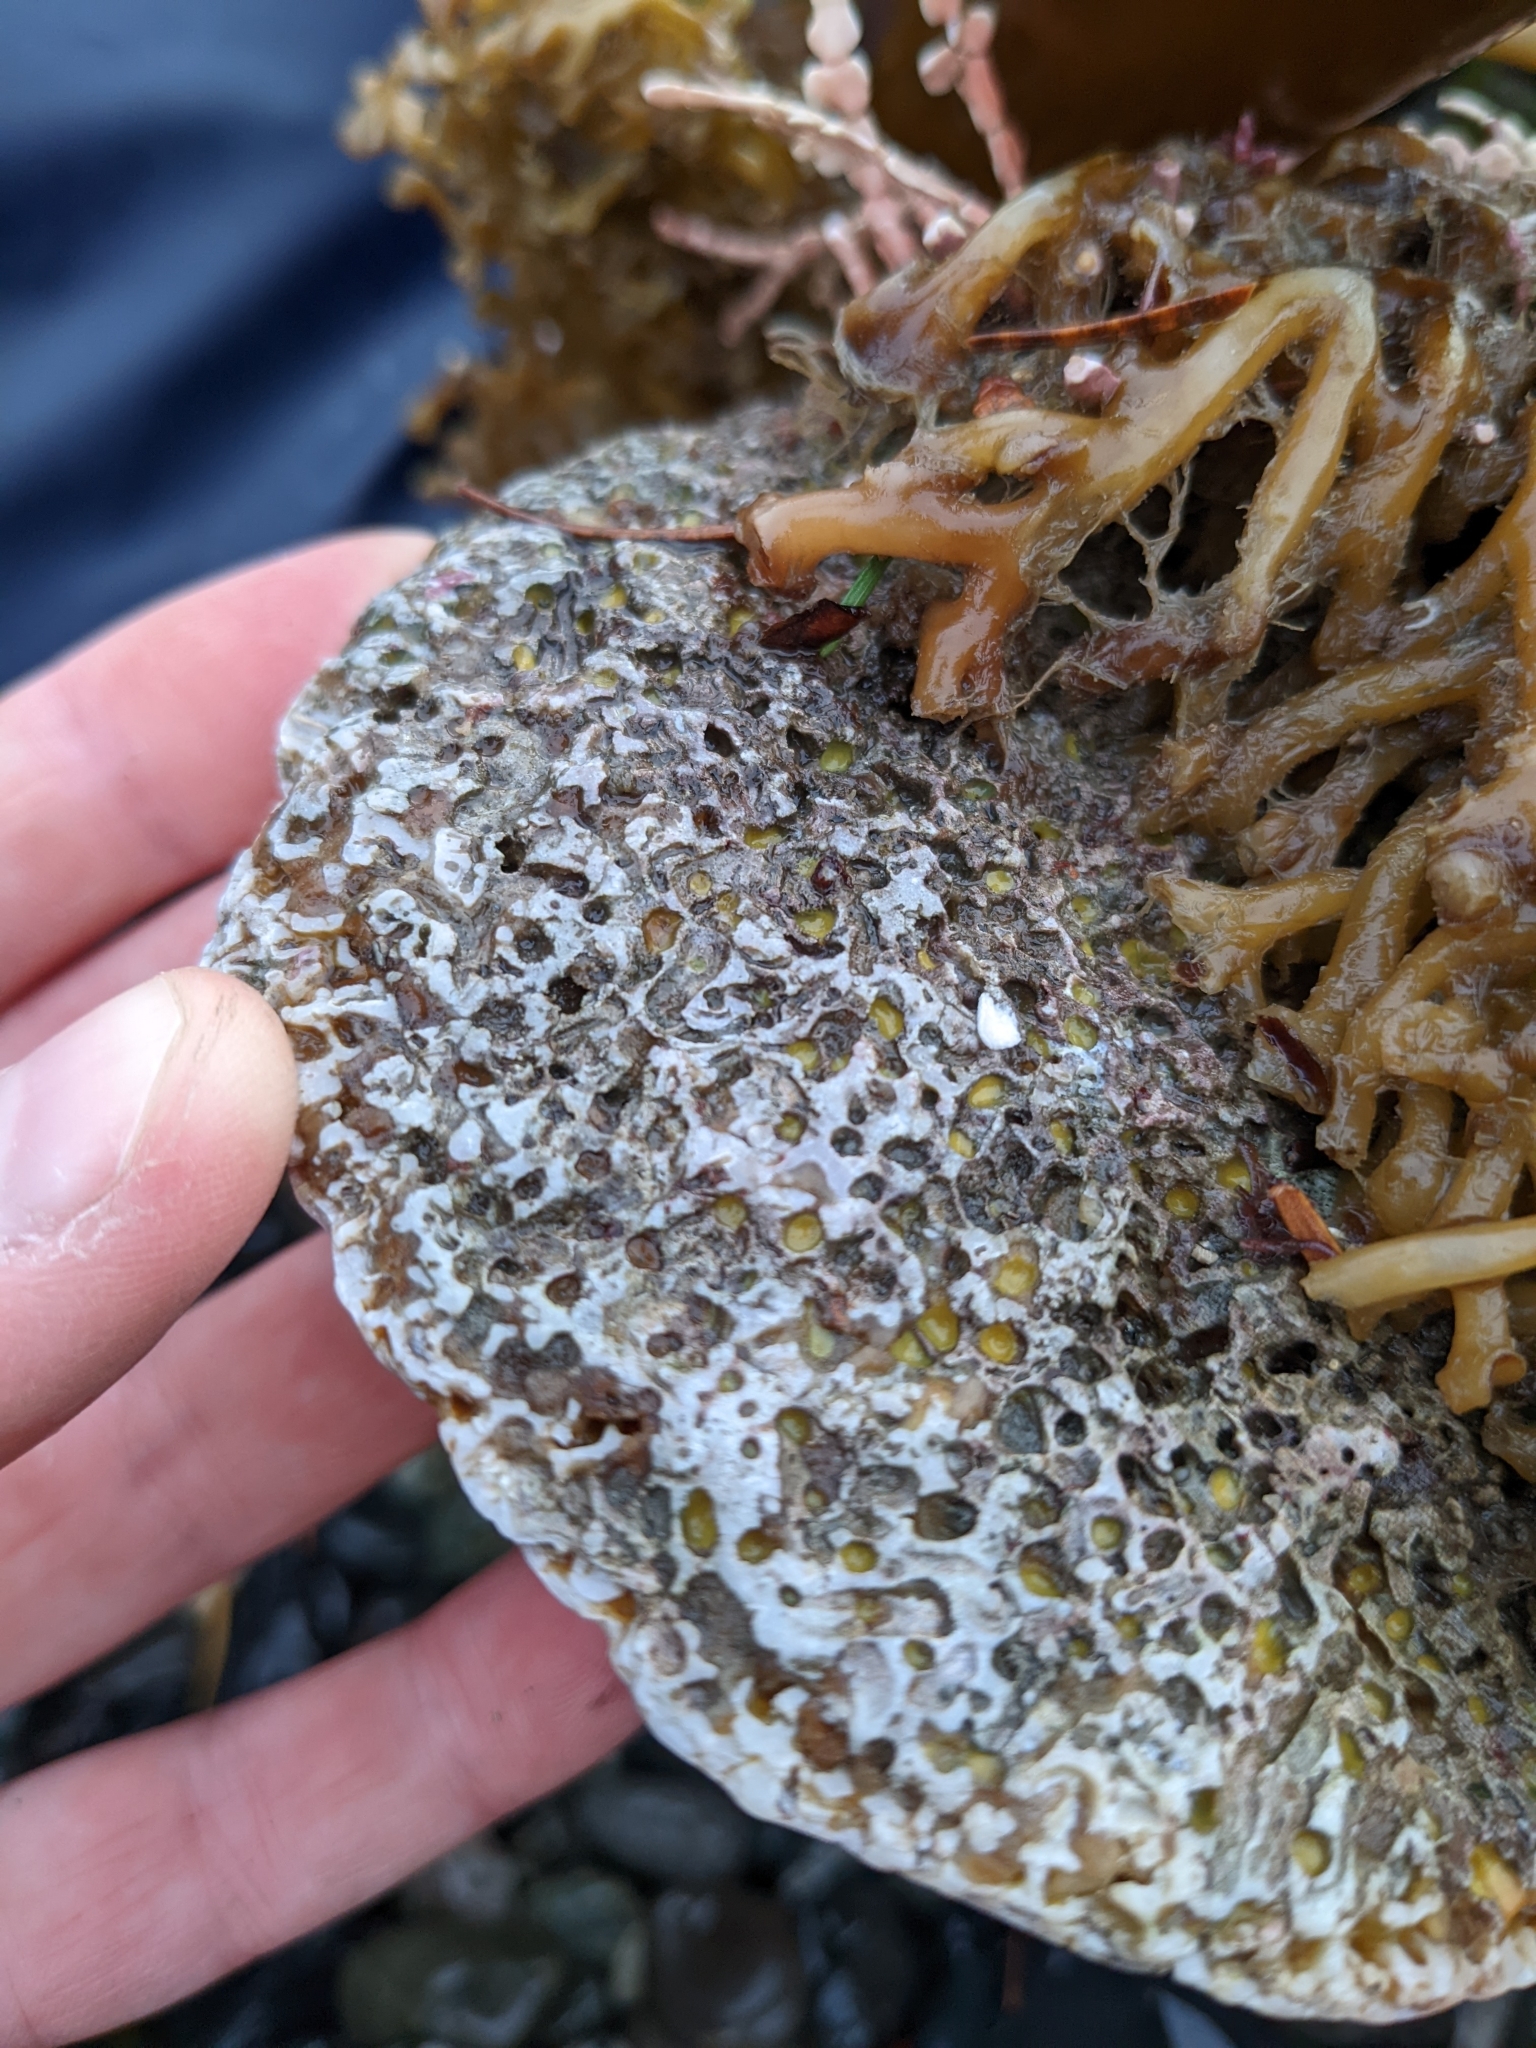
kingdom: Animalia
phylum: Porifera
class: Demospongiae
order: Clionaida
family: Clionaidae
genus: Cliona
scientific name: Cliona celata
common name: Boring sponge
